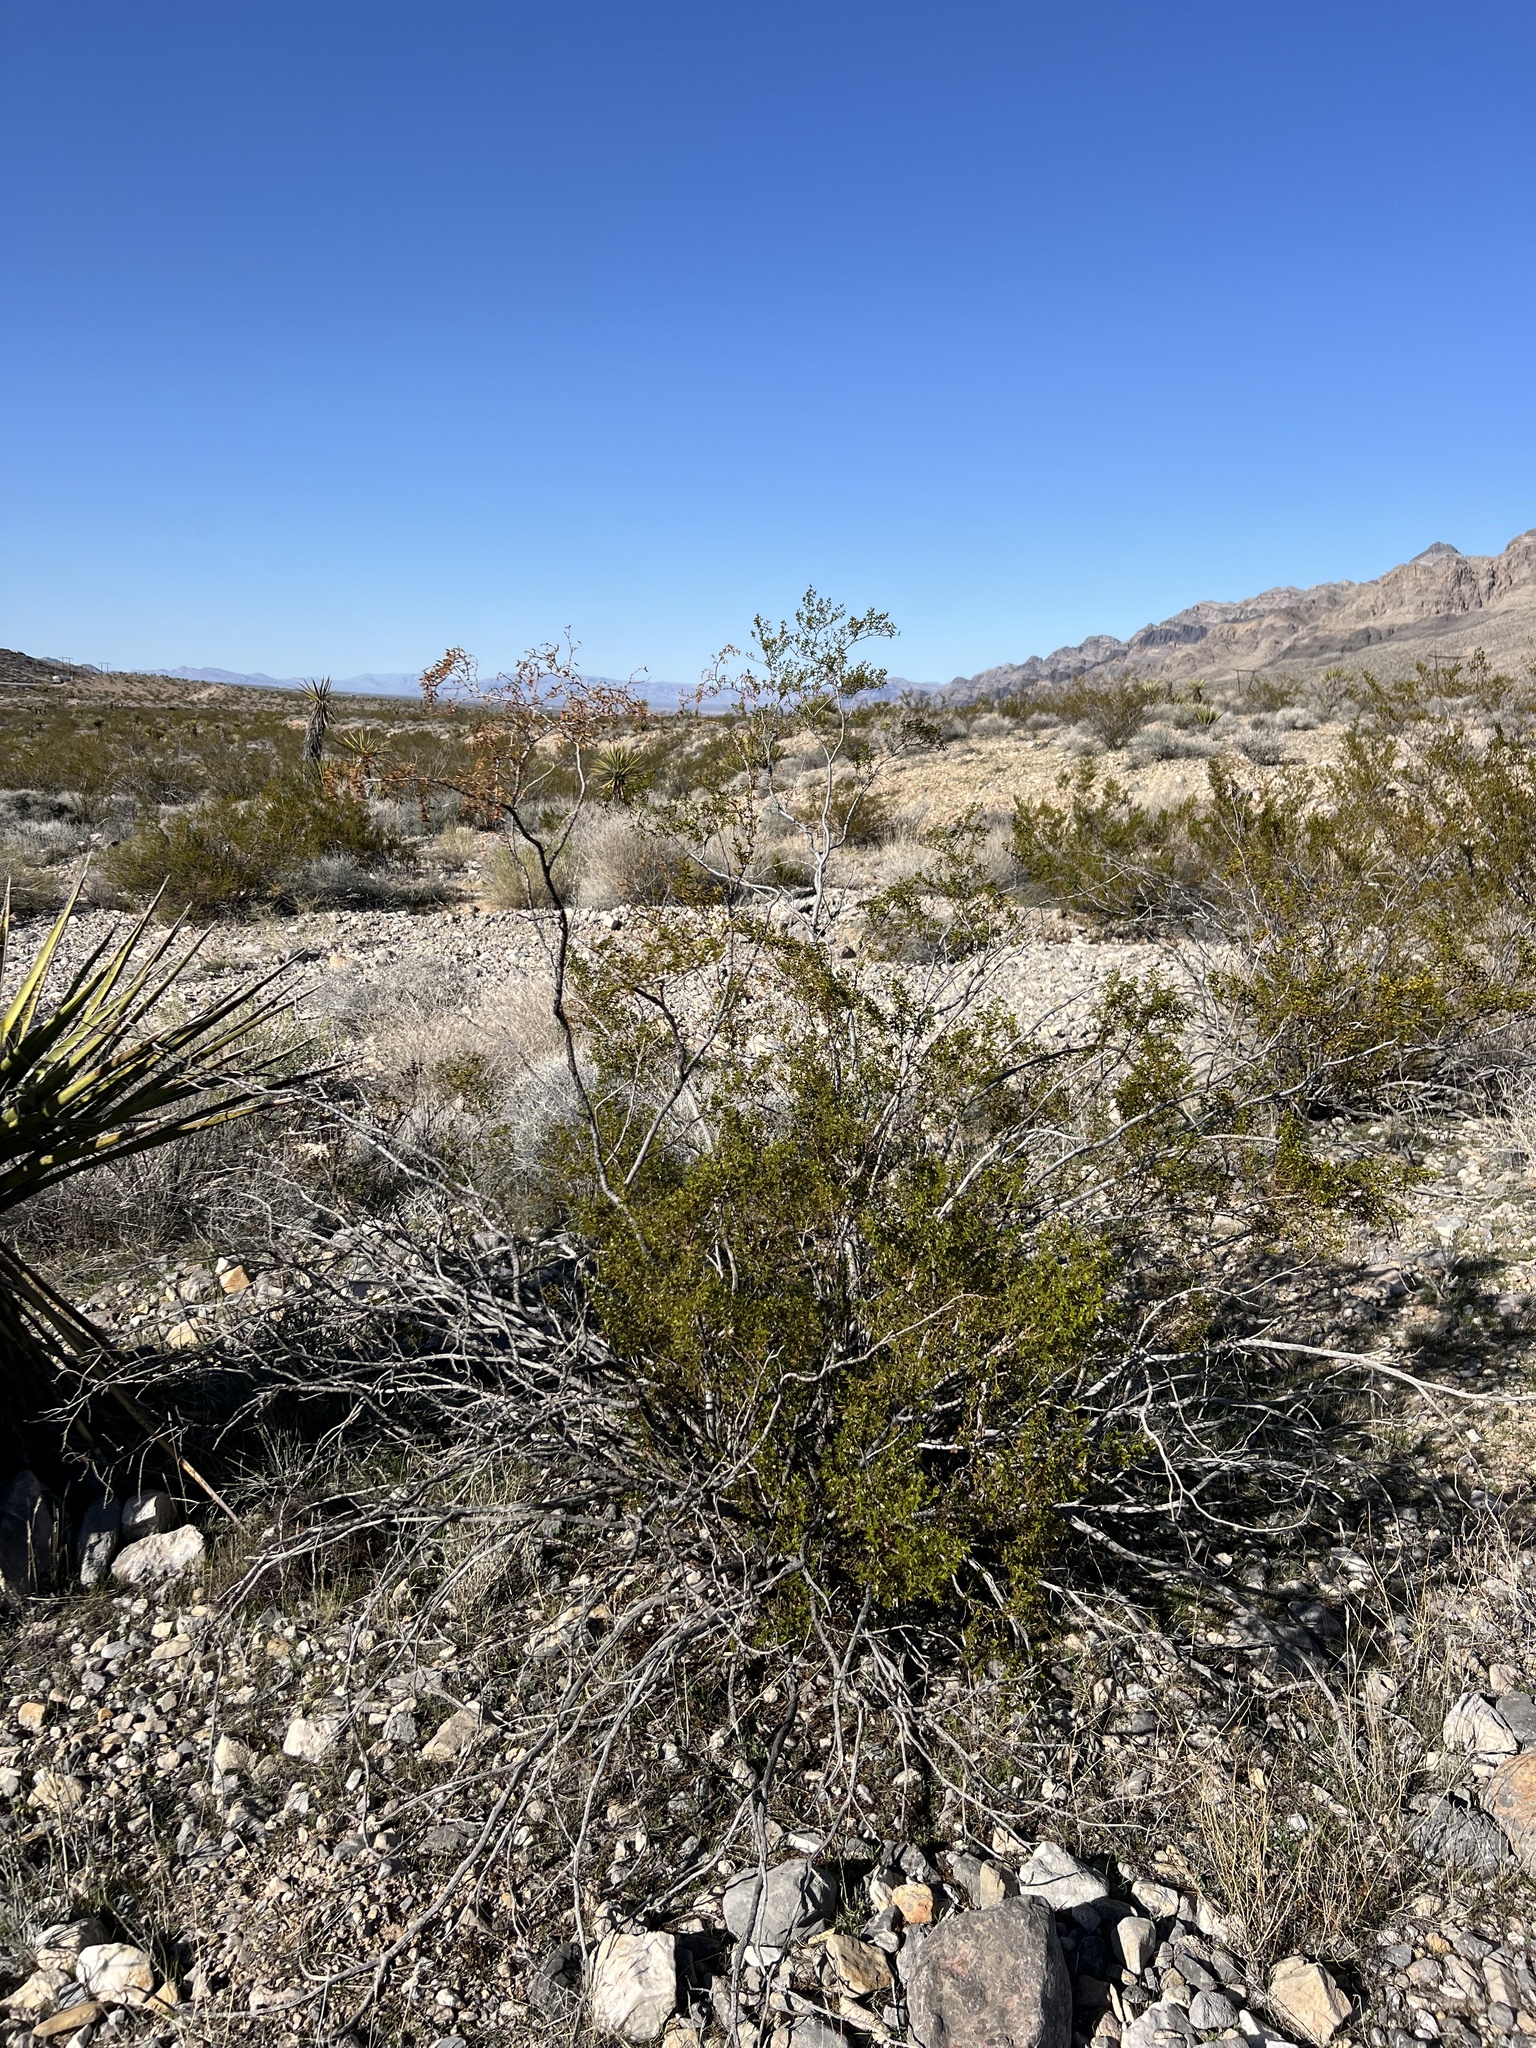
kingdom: Plantae
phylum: Tracheophyta
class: Magnoliopsida
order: Zygophyllales
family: Zygophyllaceae
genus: Larrea
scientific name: Larrea tridentata
